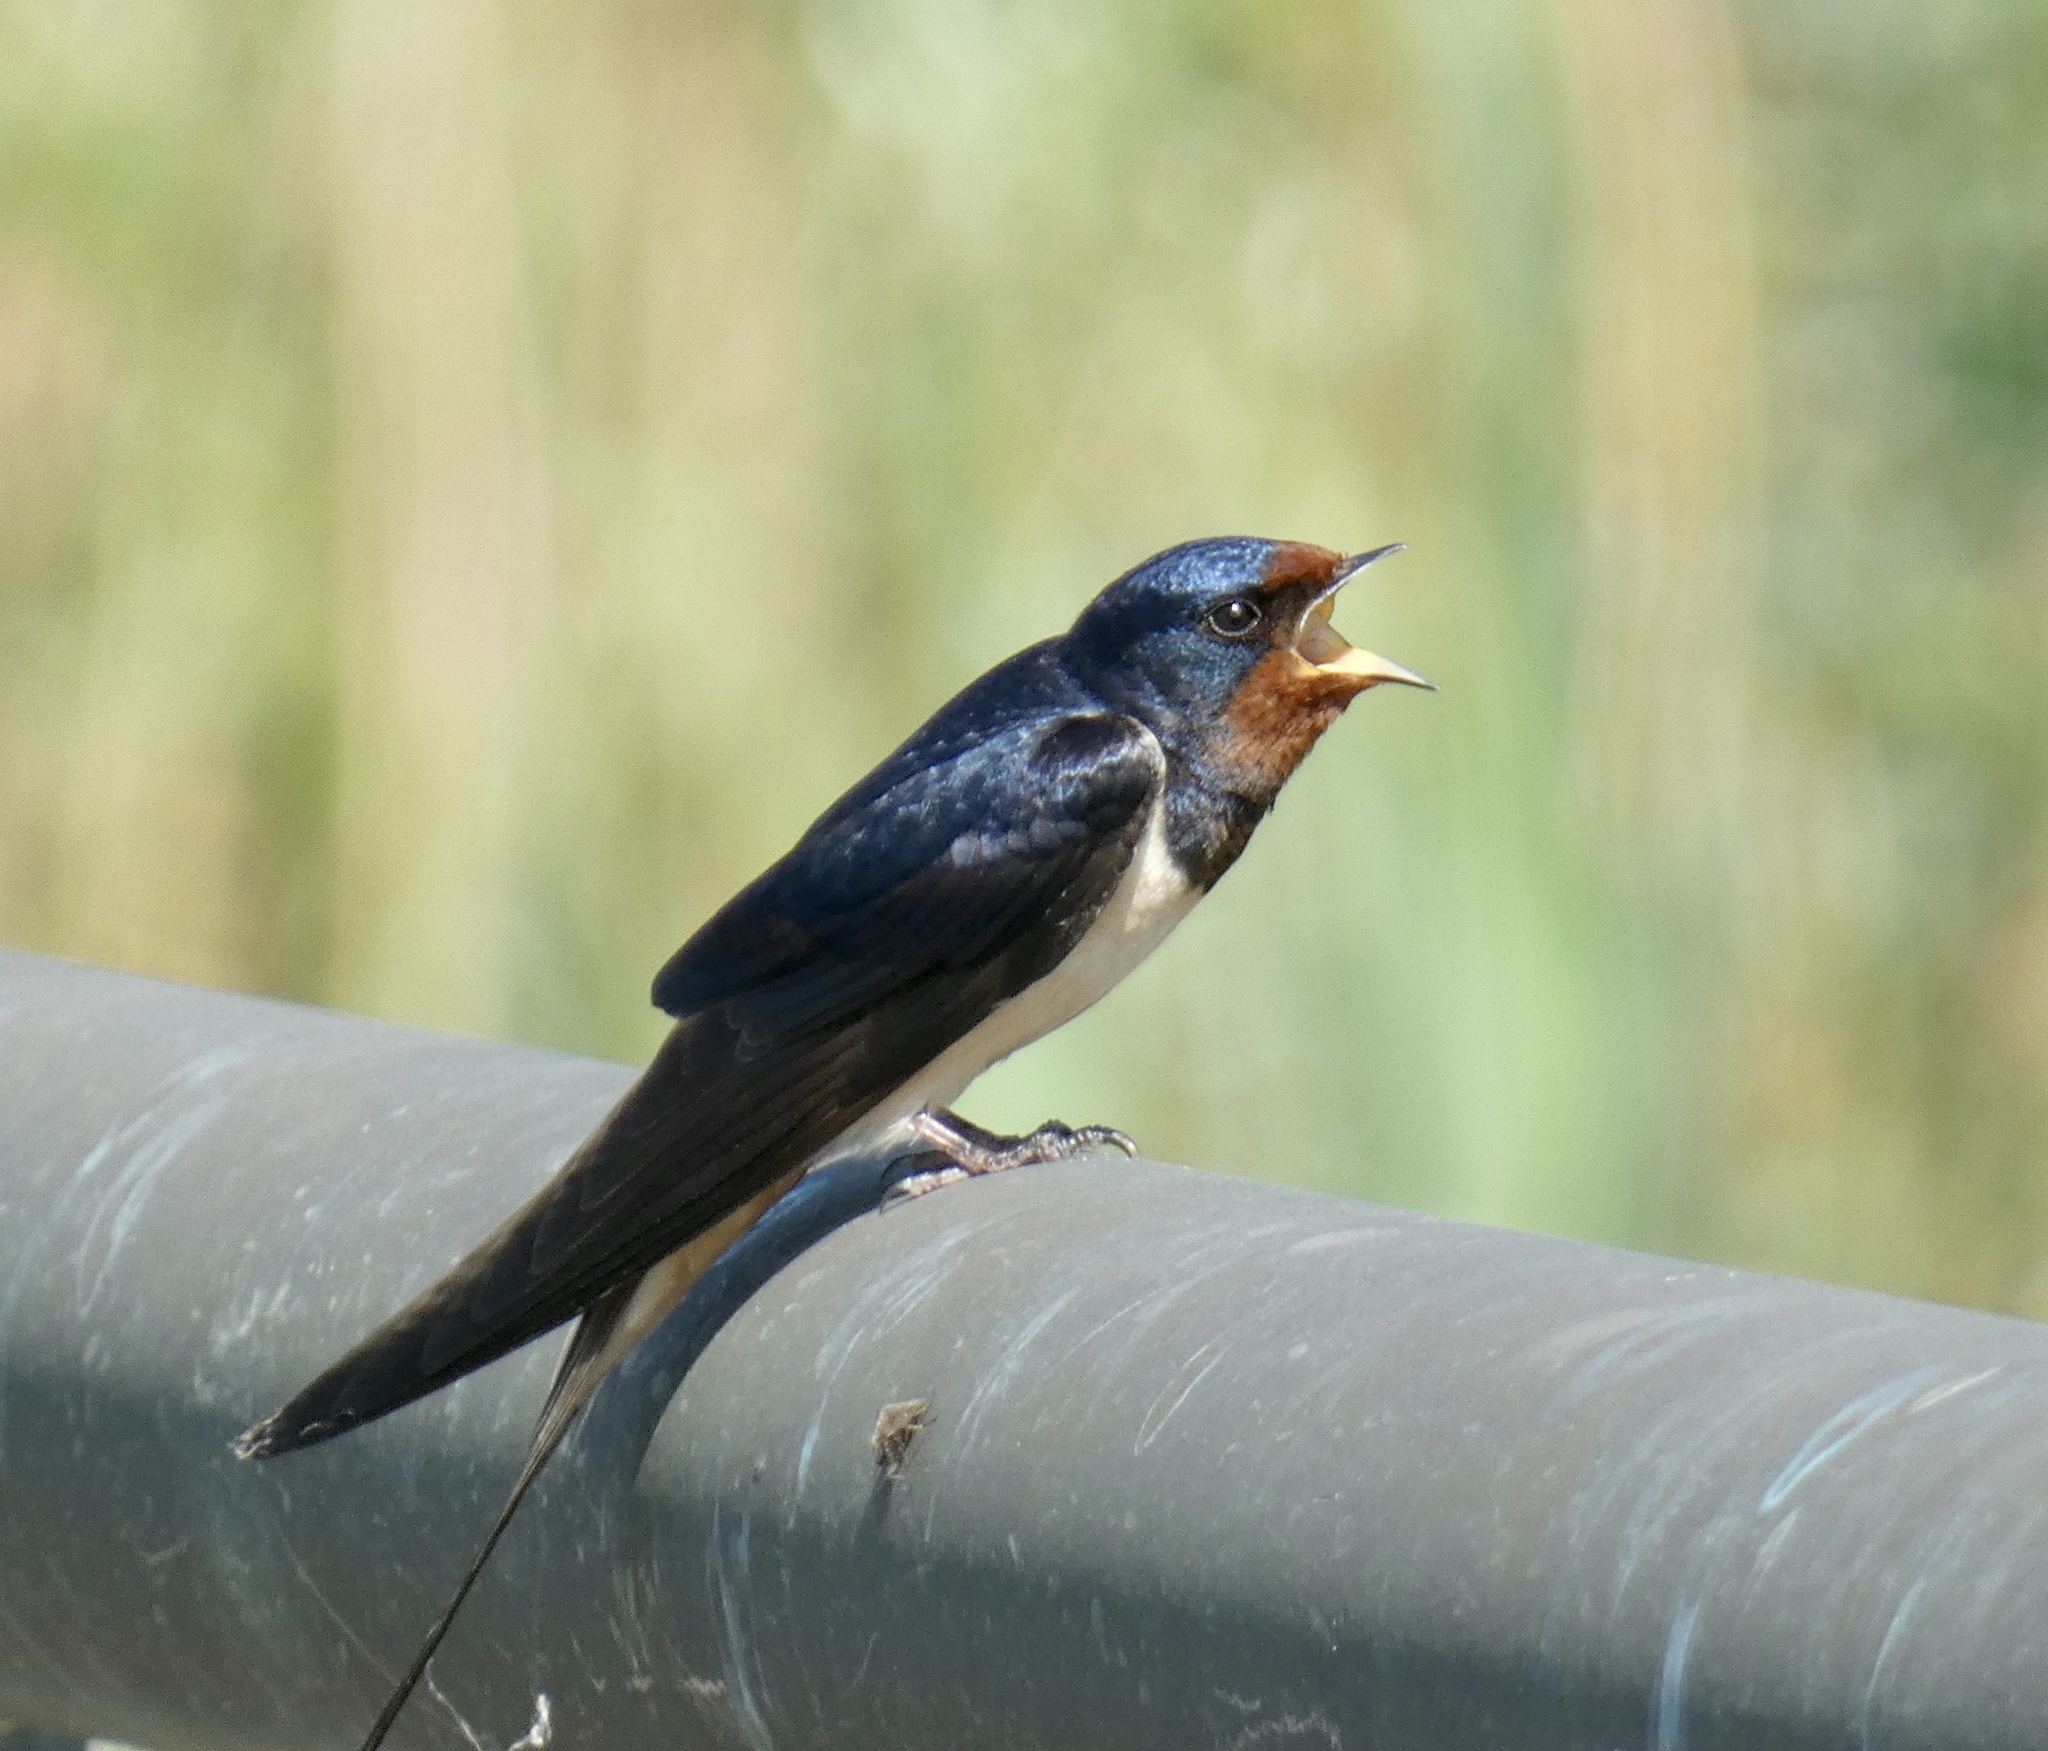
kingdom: Animalia
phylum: Chordata
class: Aves
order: Passeriformes
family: Hirundinidae
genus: Hirundo
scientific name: Hirundo rustica
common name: Barn swallow
